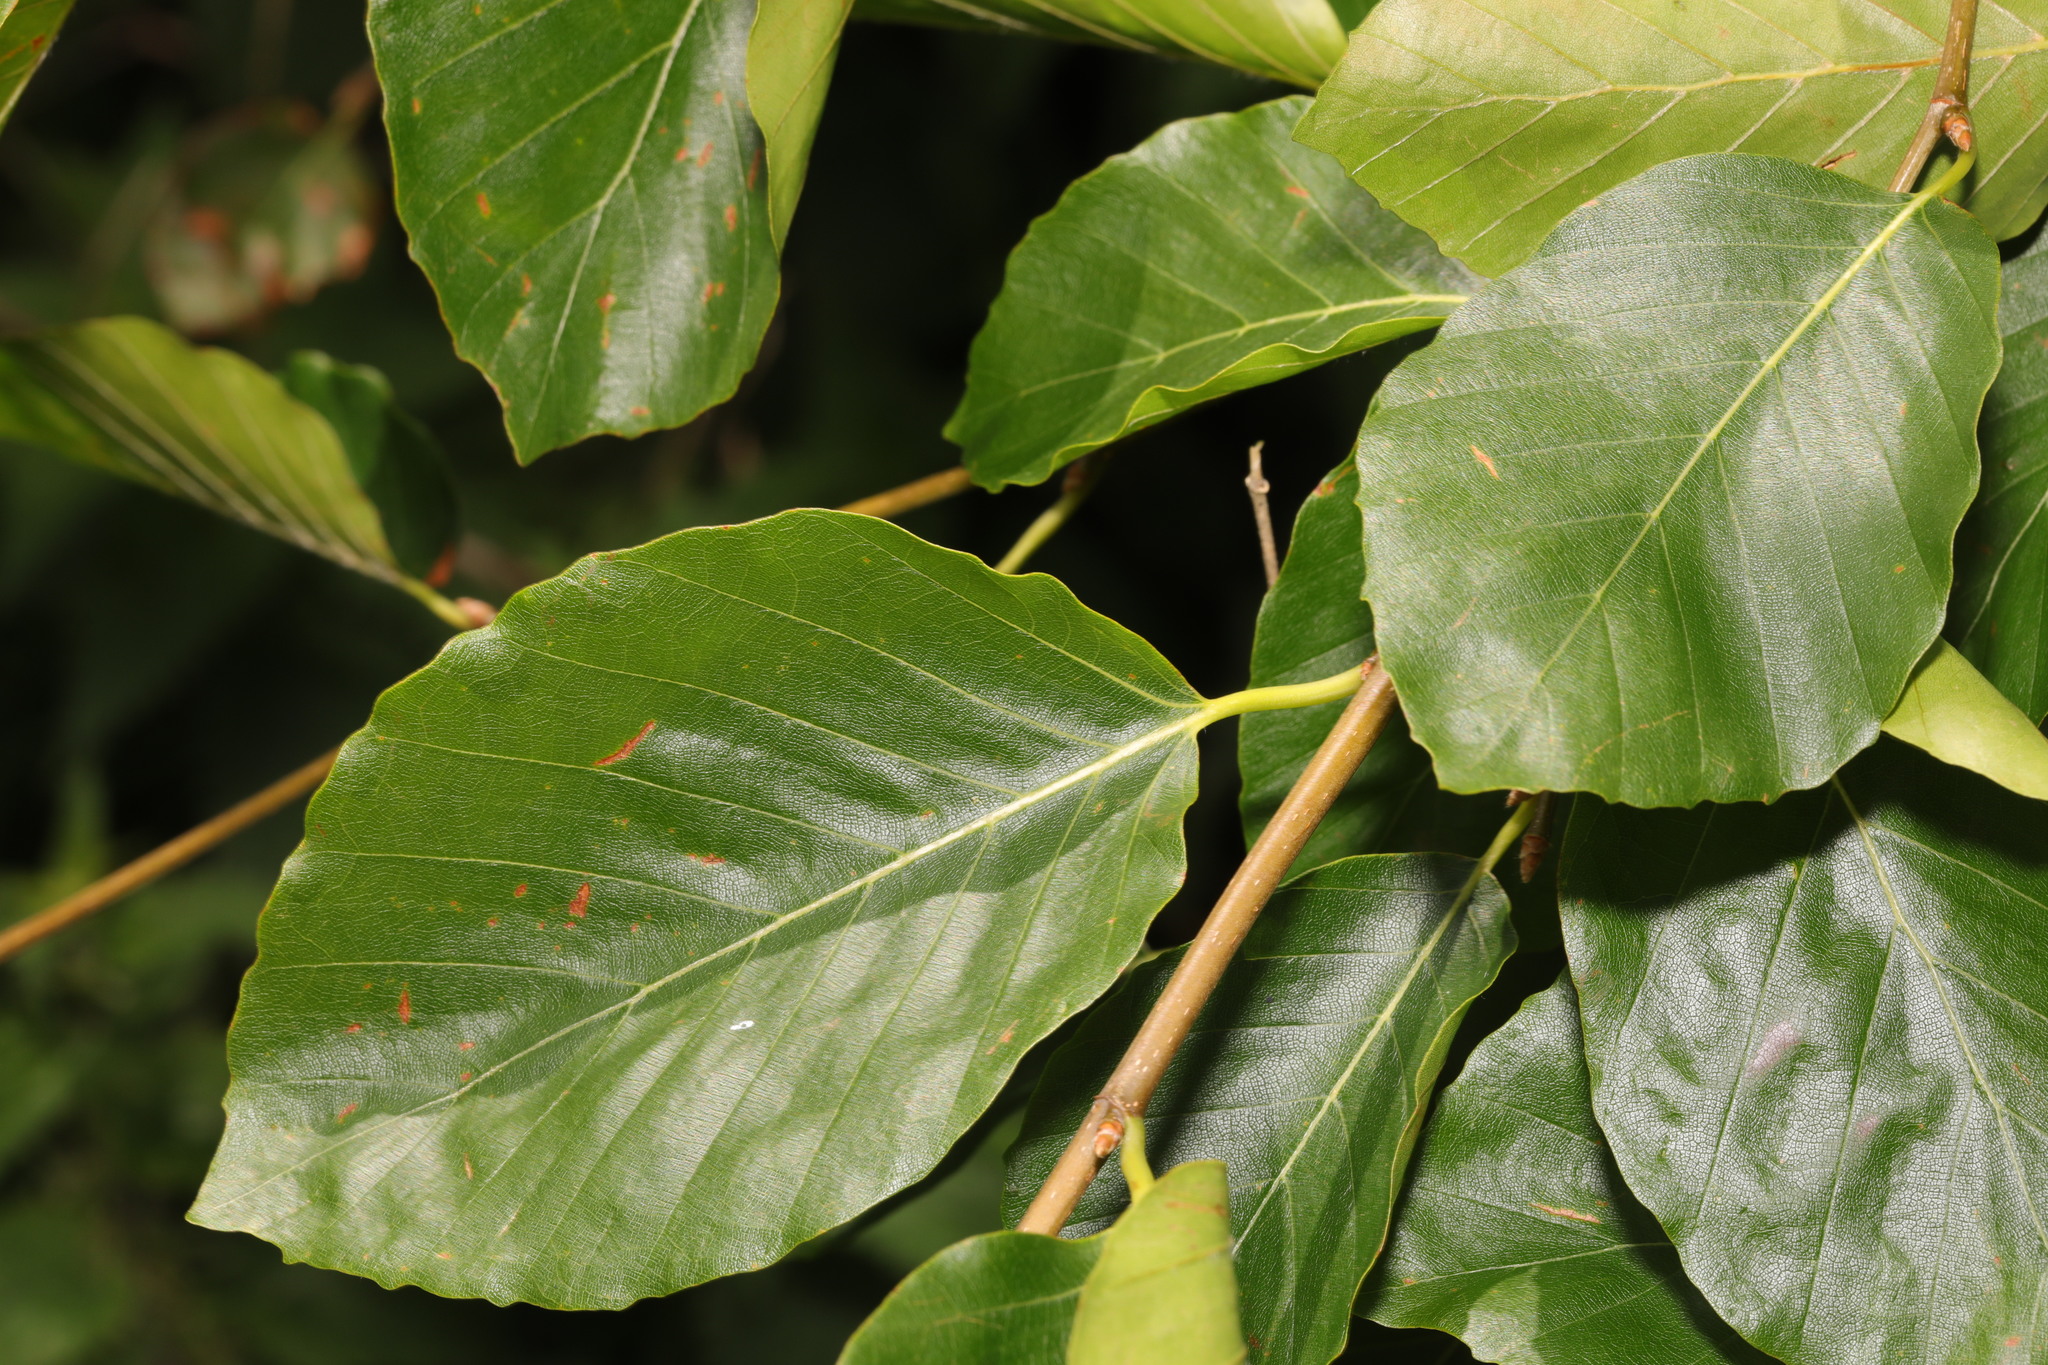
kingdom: Plantae
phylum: Tracheophyta
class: Magnoliopsida
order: Fagales
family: Fagaceae
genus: Fagus
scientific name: Fagus sylvatica
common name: Beech
